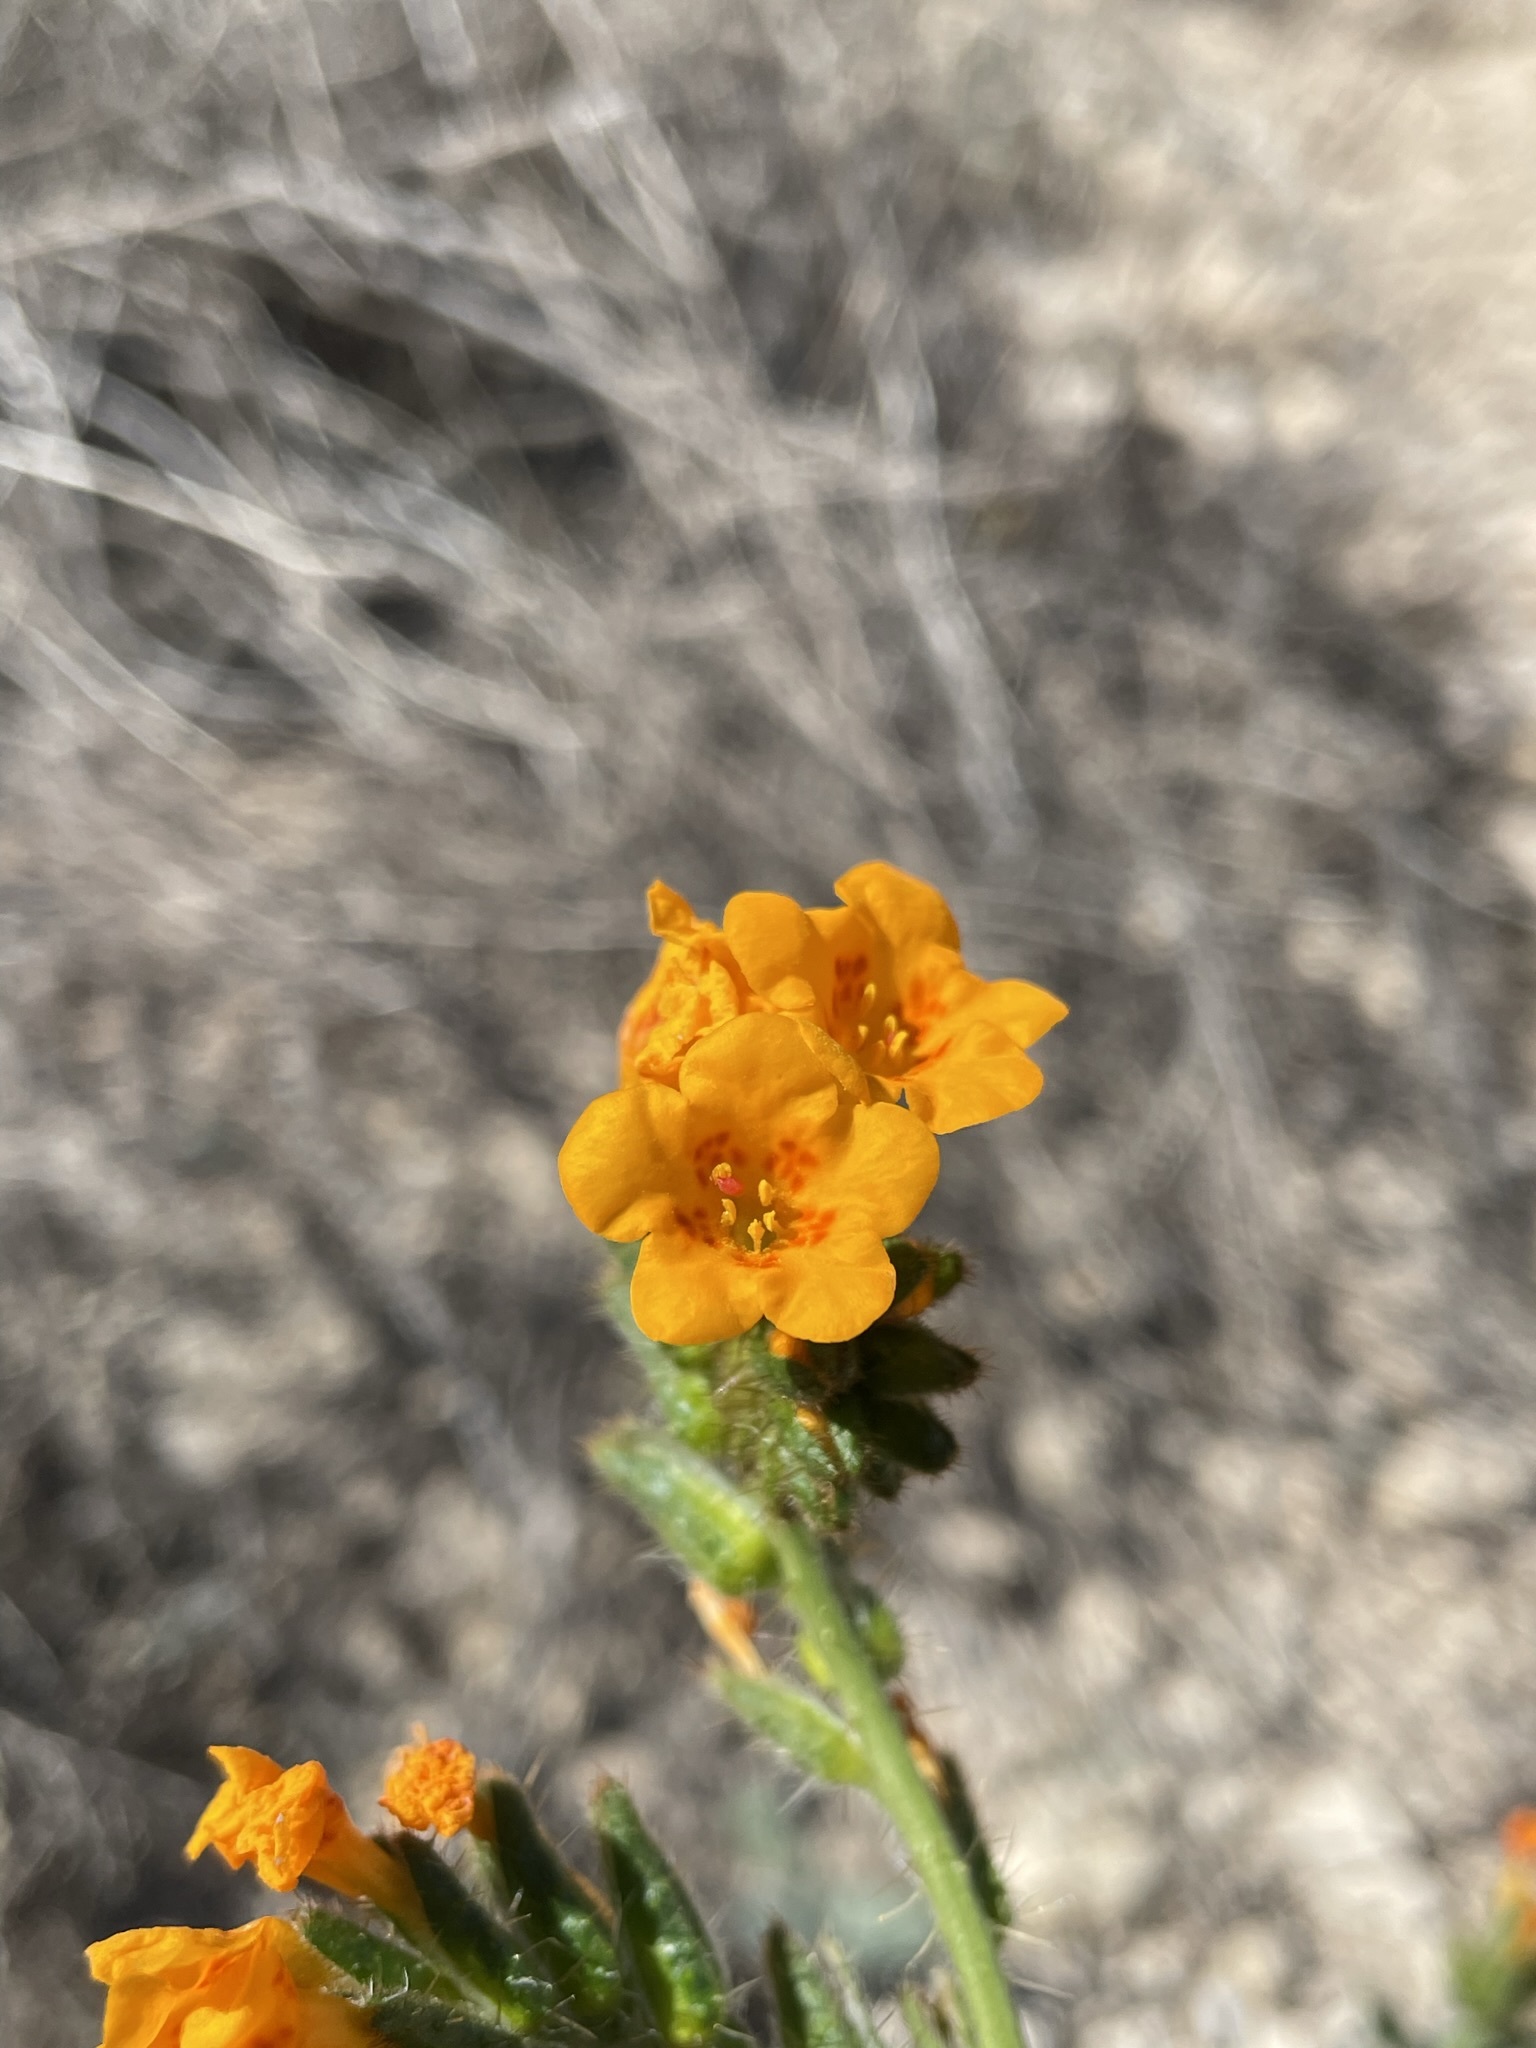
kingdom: Plantae
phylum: Tracheophyta
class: Magnoliopsida
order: Boraginales
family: Boraginaceae
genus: Amsinckia
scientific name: Amsinckia vernicosa
